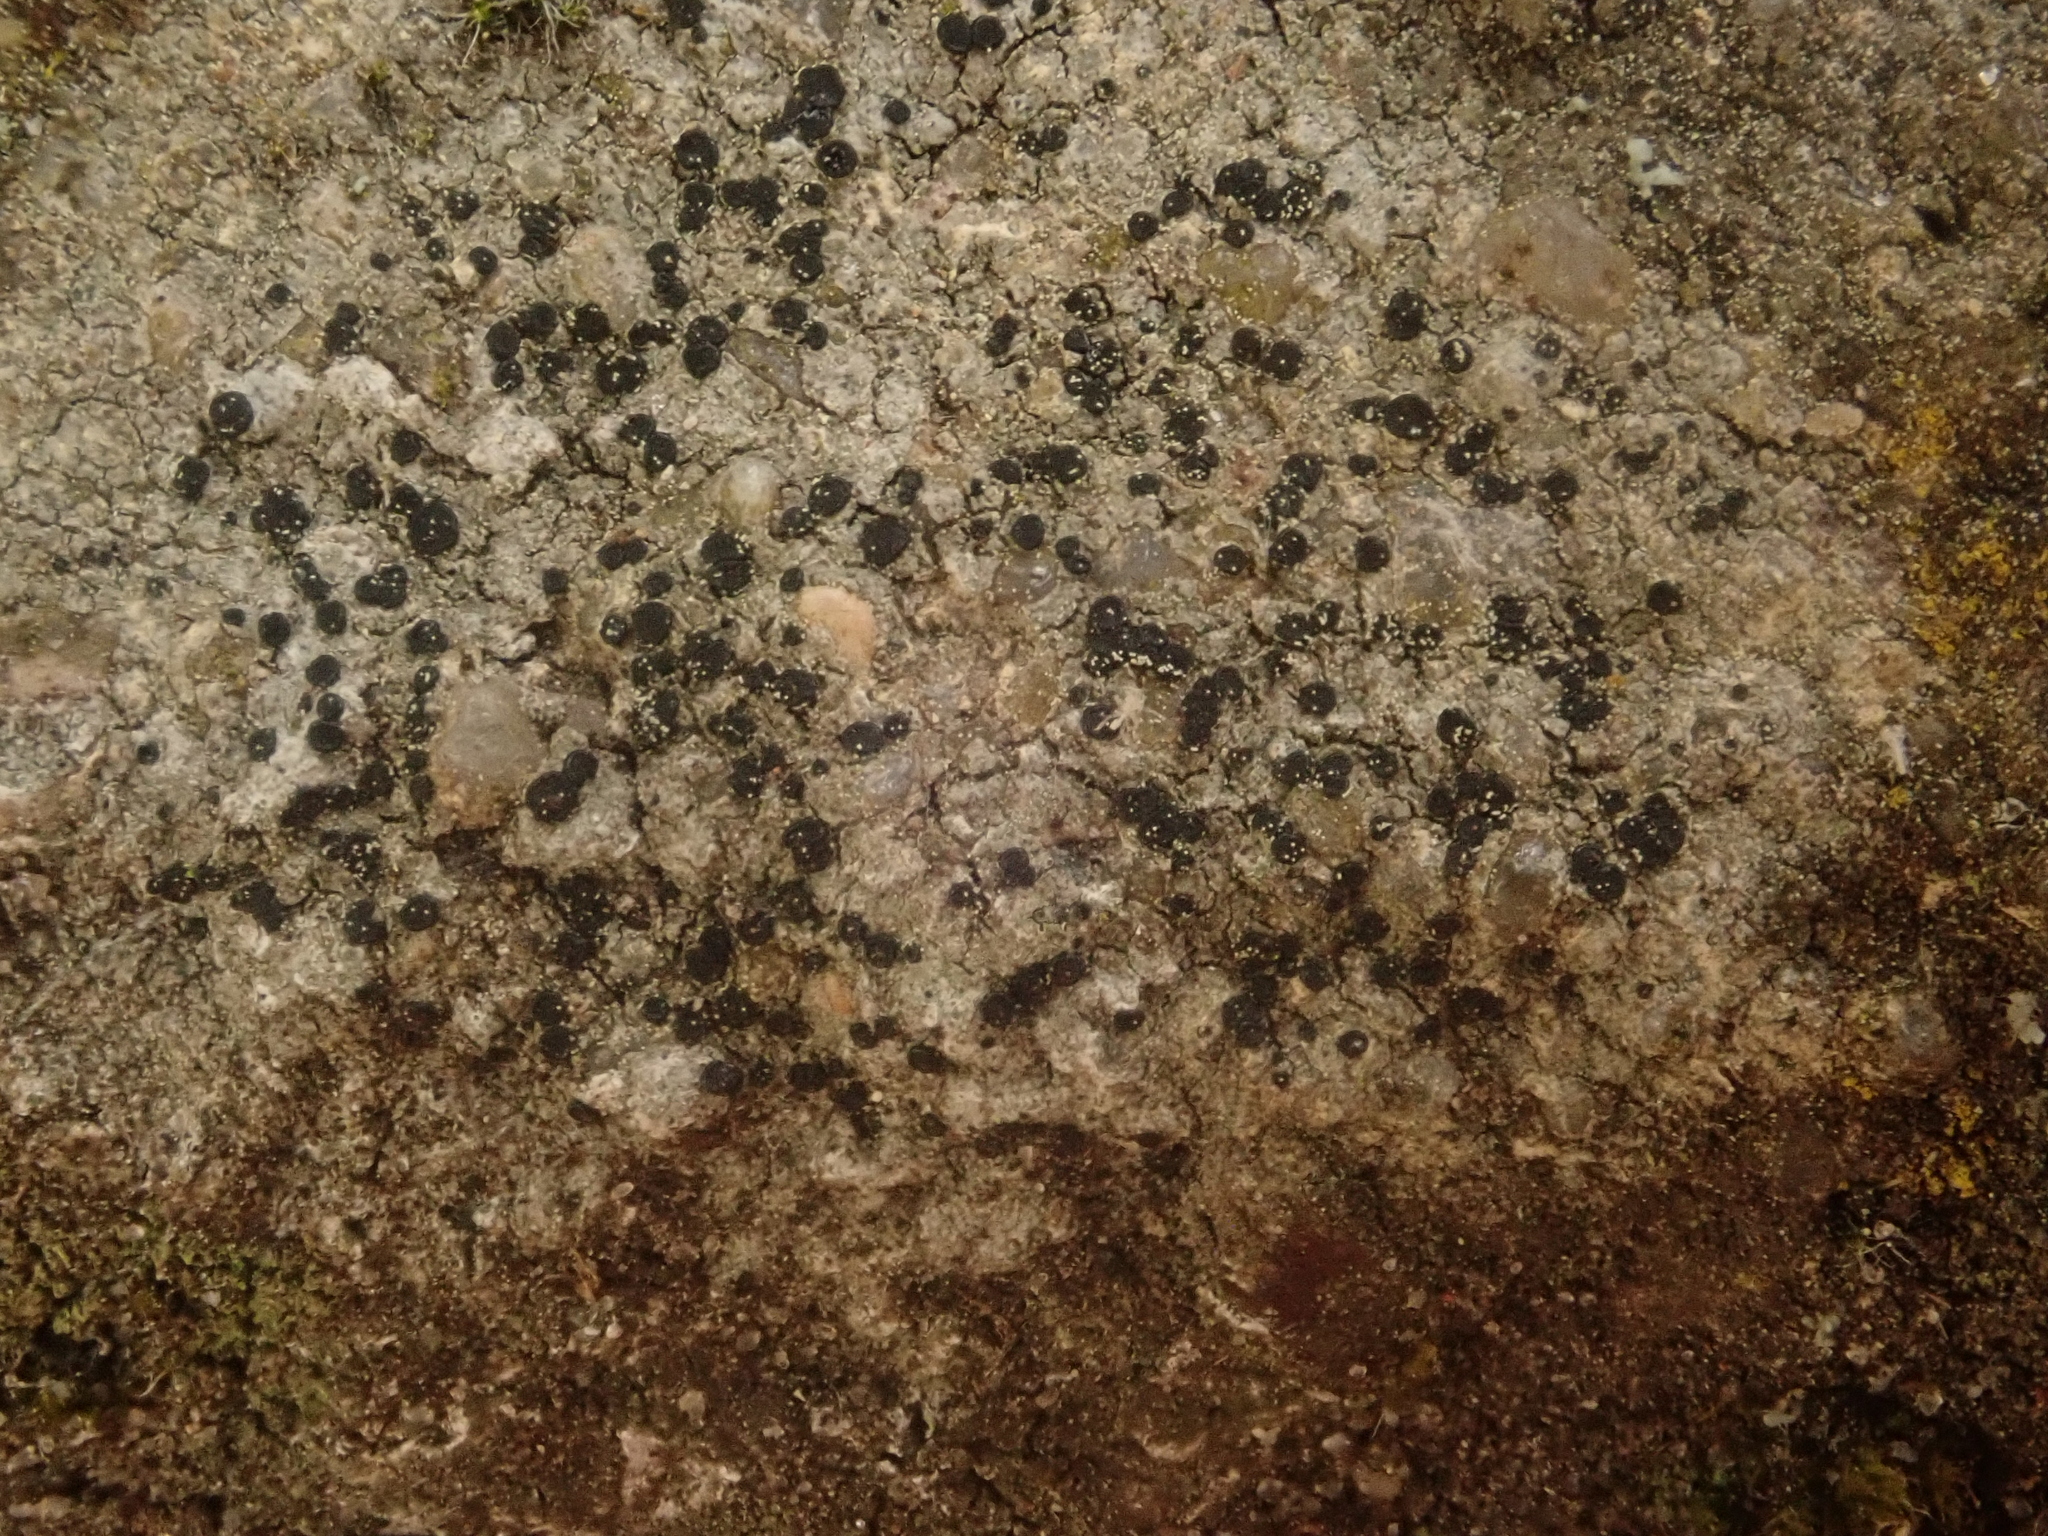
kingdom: Fungi
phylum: Ascomycota
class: Lecanoromycetes
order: Lecanorales
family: Lecanoraceae
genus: Lecidella
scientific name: Lecidella stigmatea
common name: Limestone disc lichen
